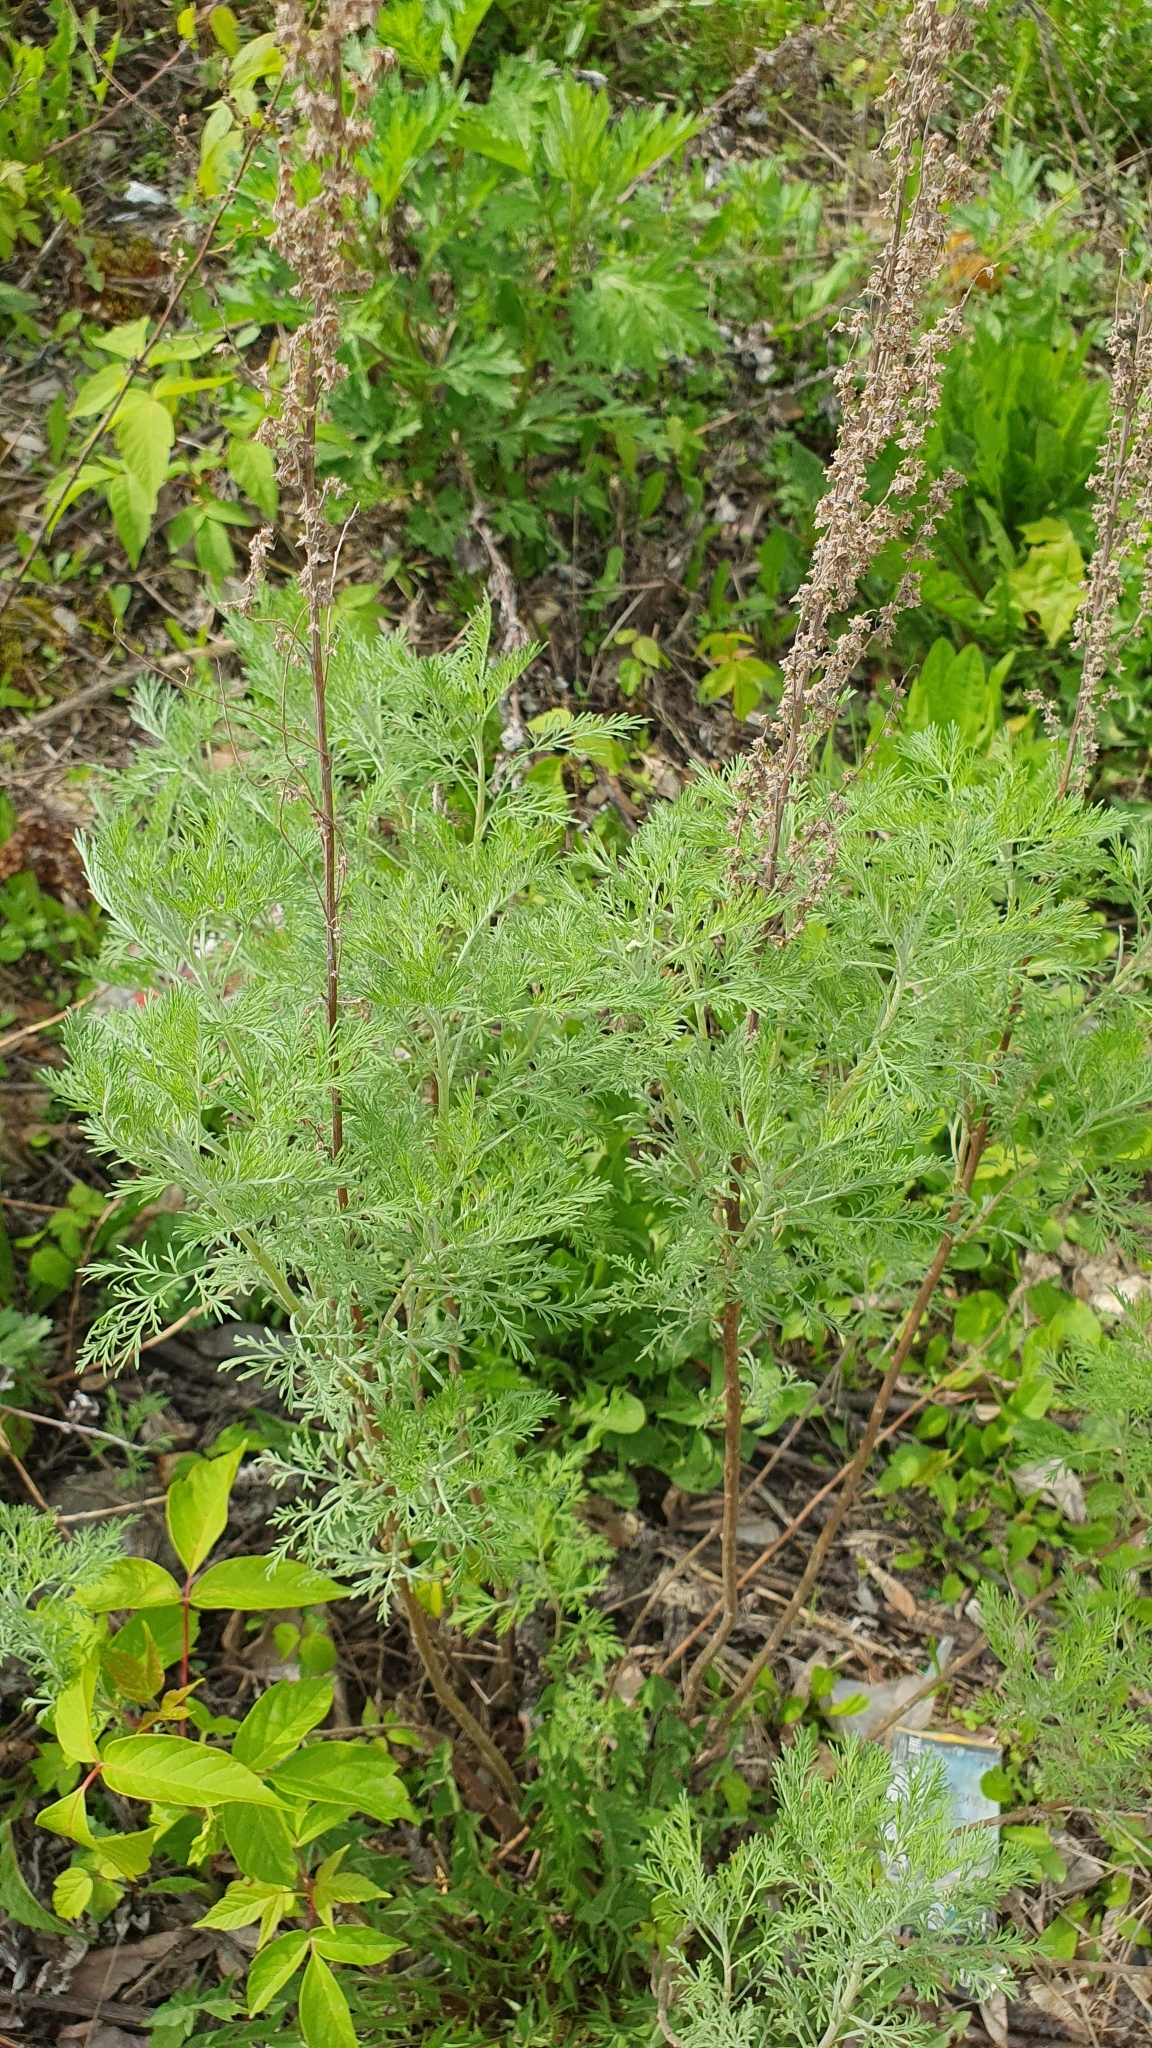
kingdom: Plantae
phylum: Tracheophyta
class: Magnoliopsida
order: Asterales
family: Asteraceae
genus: Artemisia
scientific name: Artemisia abrotanum
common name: Southernwood
